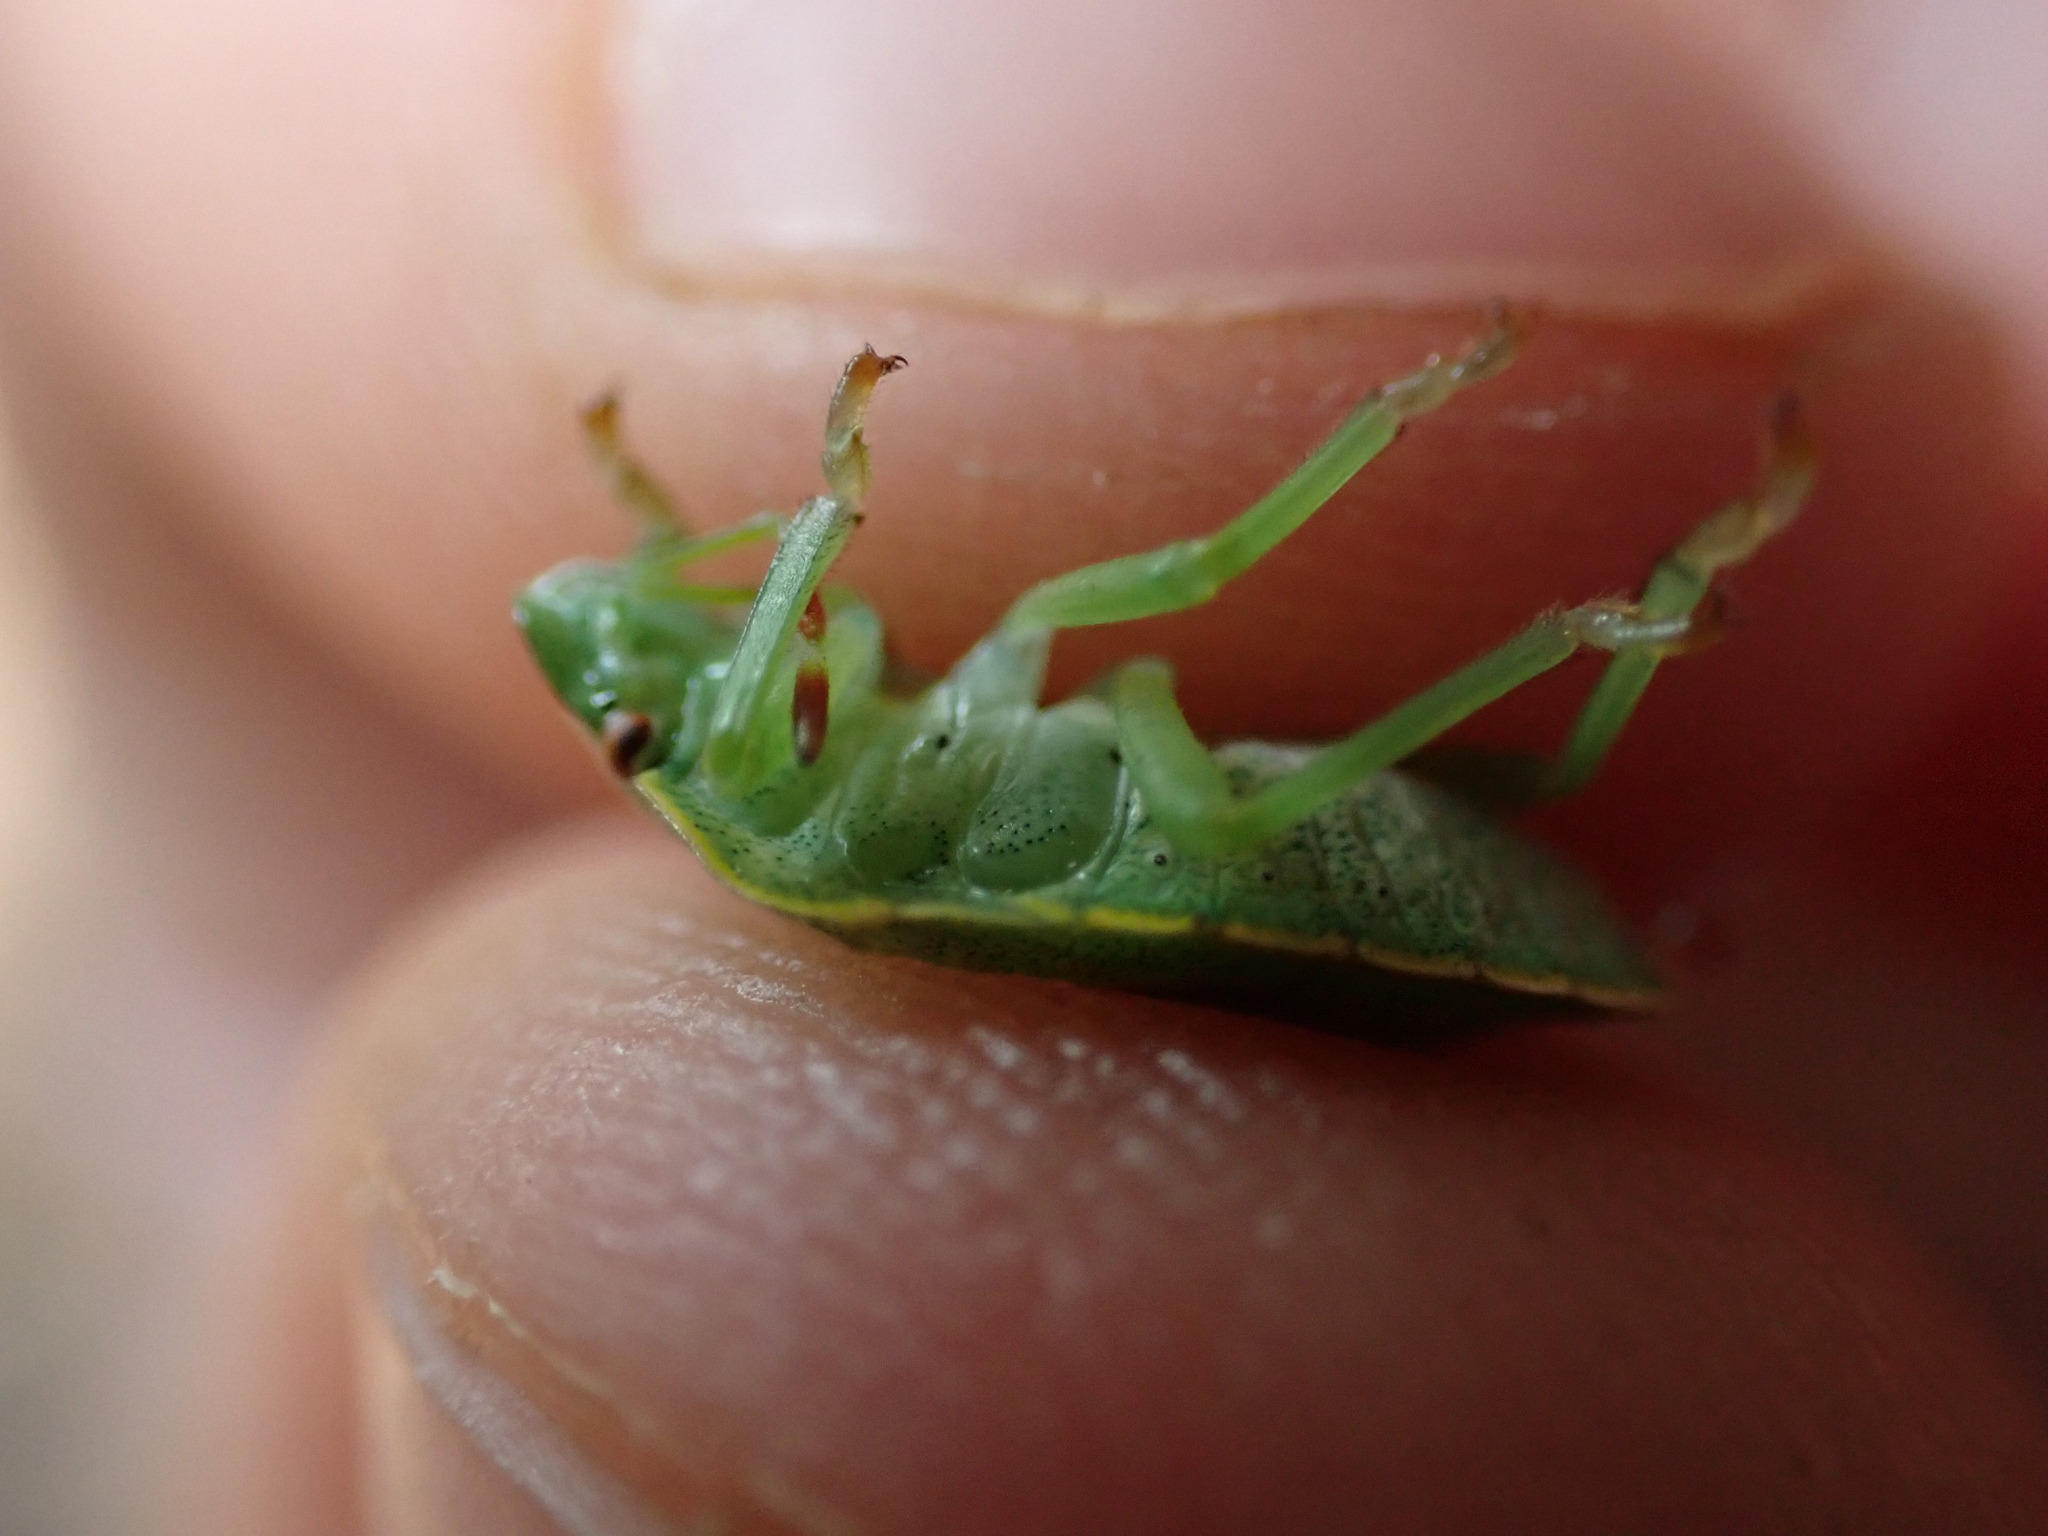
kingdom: Animalia
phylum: Arthropoda
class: Insecta
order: Hemiptera
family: Pentatomidae
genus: Palomena
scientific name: Palomena prasina
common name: Green shieldbug
